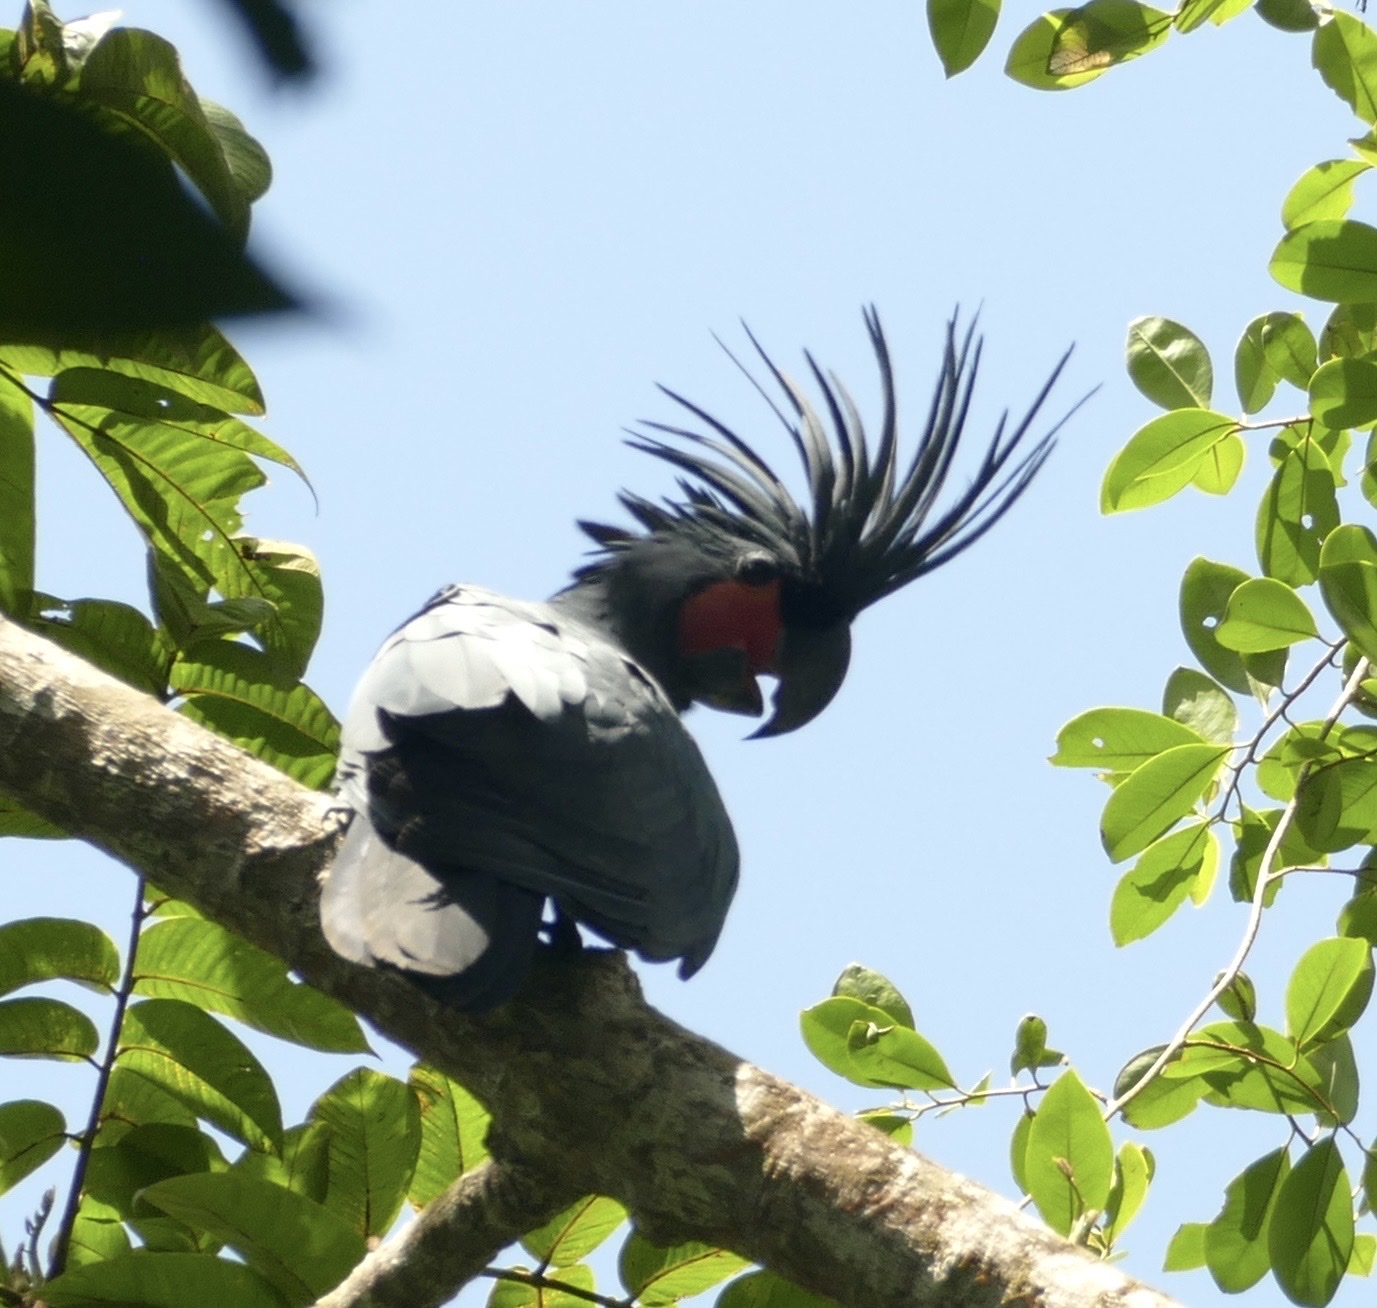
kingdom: Animalia
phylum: Chordata
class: Aves
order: Psittaciformes
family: Psittacidae
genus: Probosciger
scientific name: Probosciger aterrimus
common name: Palm cockatoo
